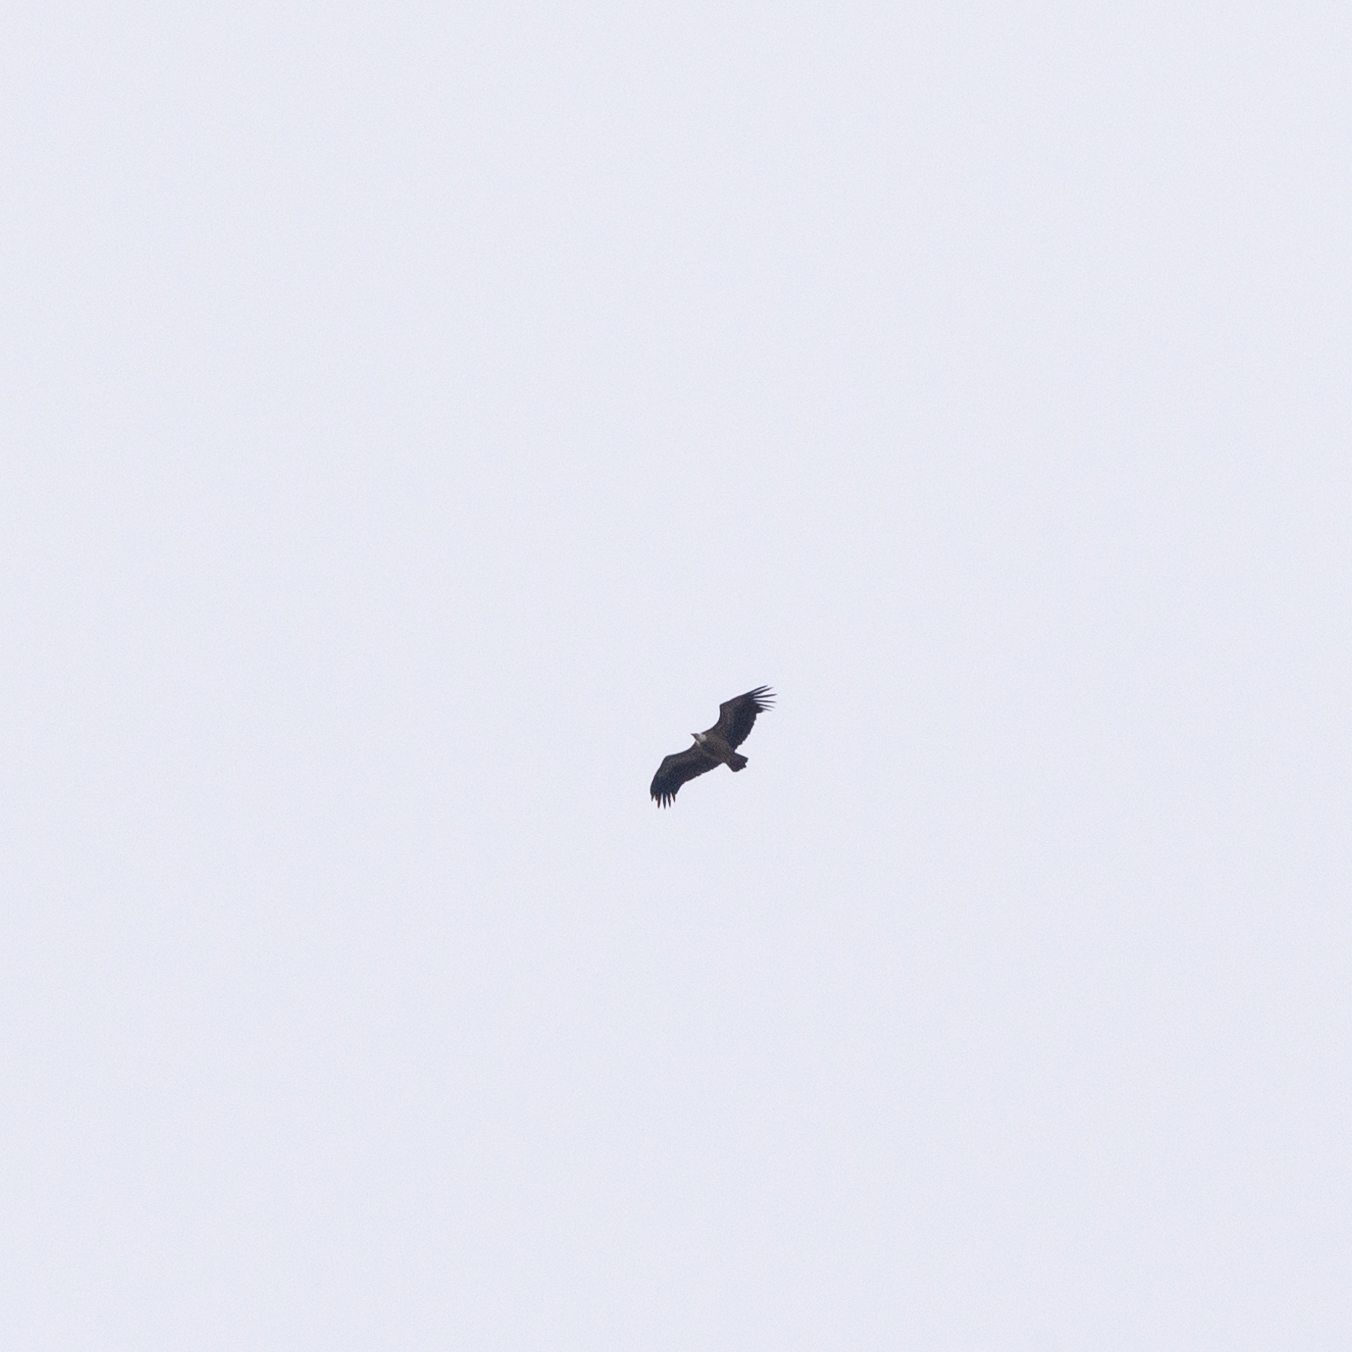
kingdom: Animalia
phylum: Chordata
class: Aves
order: Accipitriformes
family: Accipitridae
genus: Gyps
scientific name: Gyps fulvus
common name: Griffon vulture
